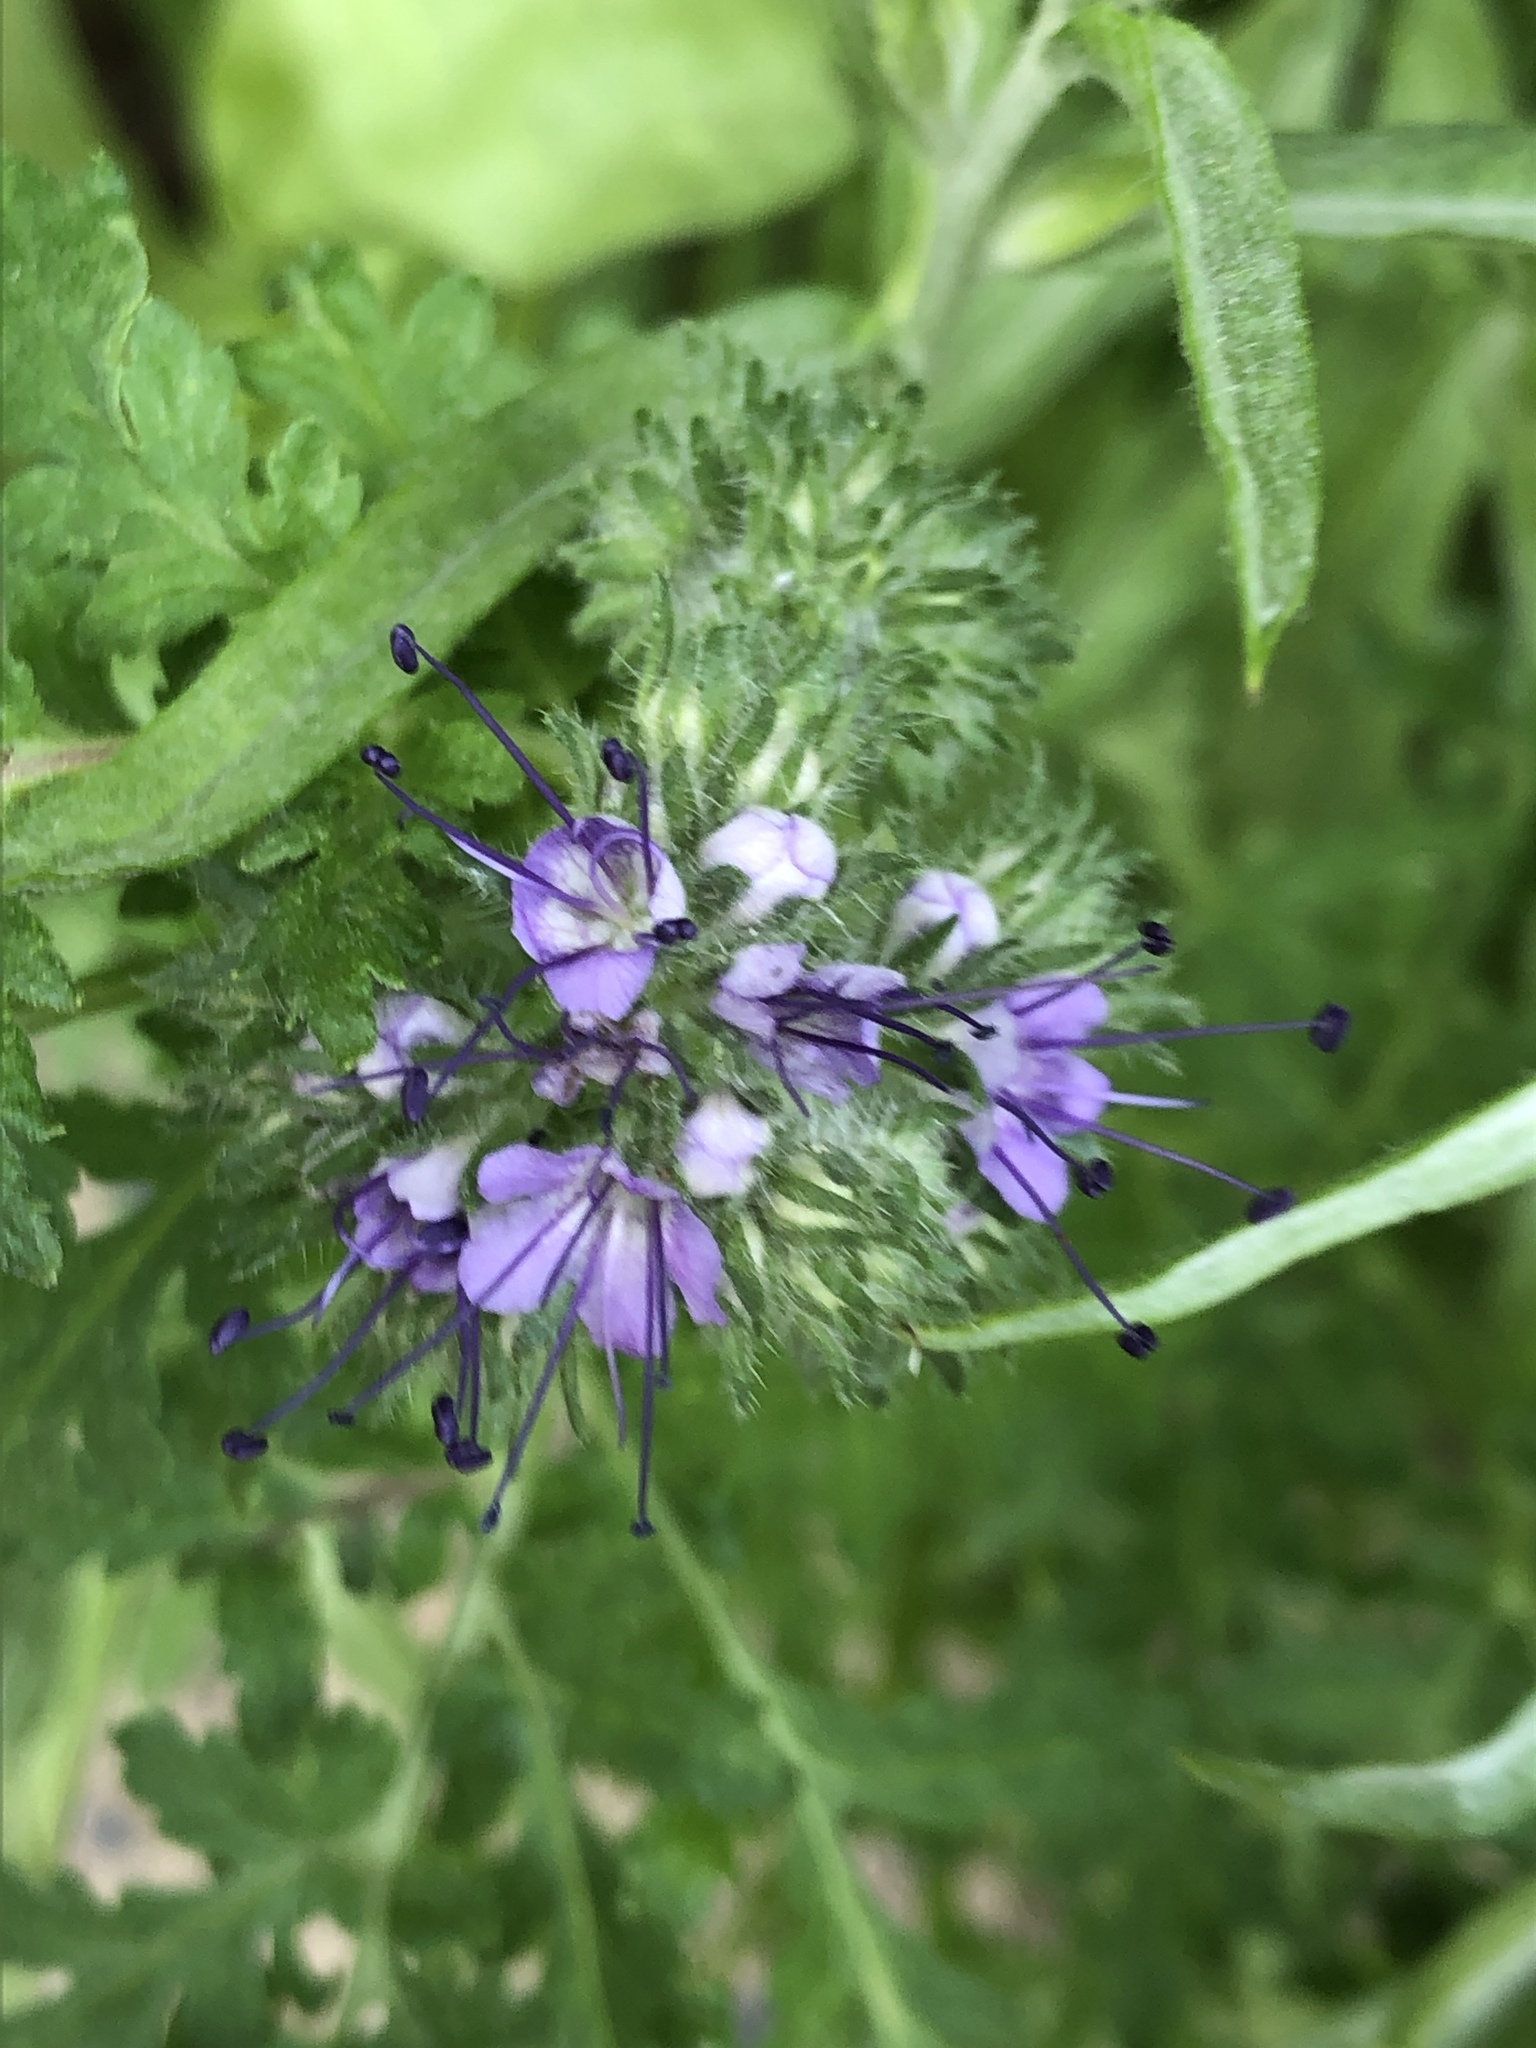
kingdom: Plantae
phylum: Tracheophyta
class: Magnoliopsida
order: Boraginales
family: Hydrophyllaceae
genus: Phacelia
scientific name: Phacelia tanacetifolia
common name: Phacelia
